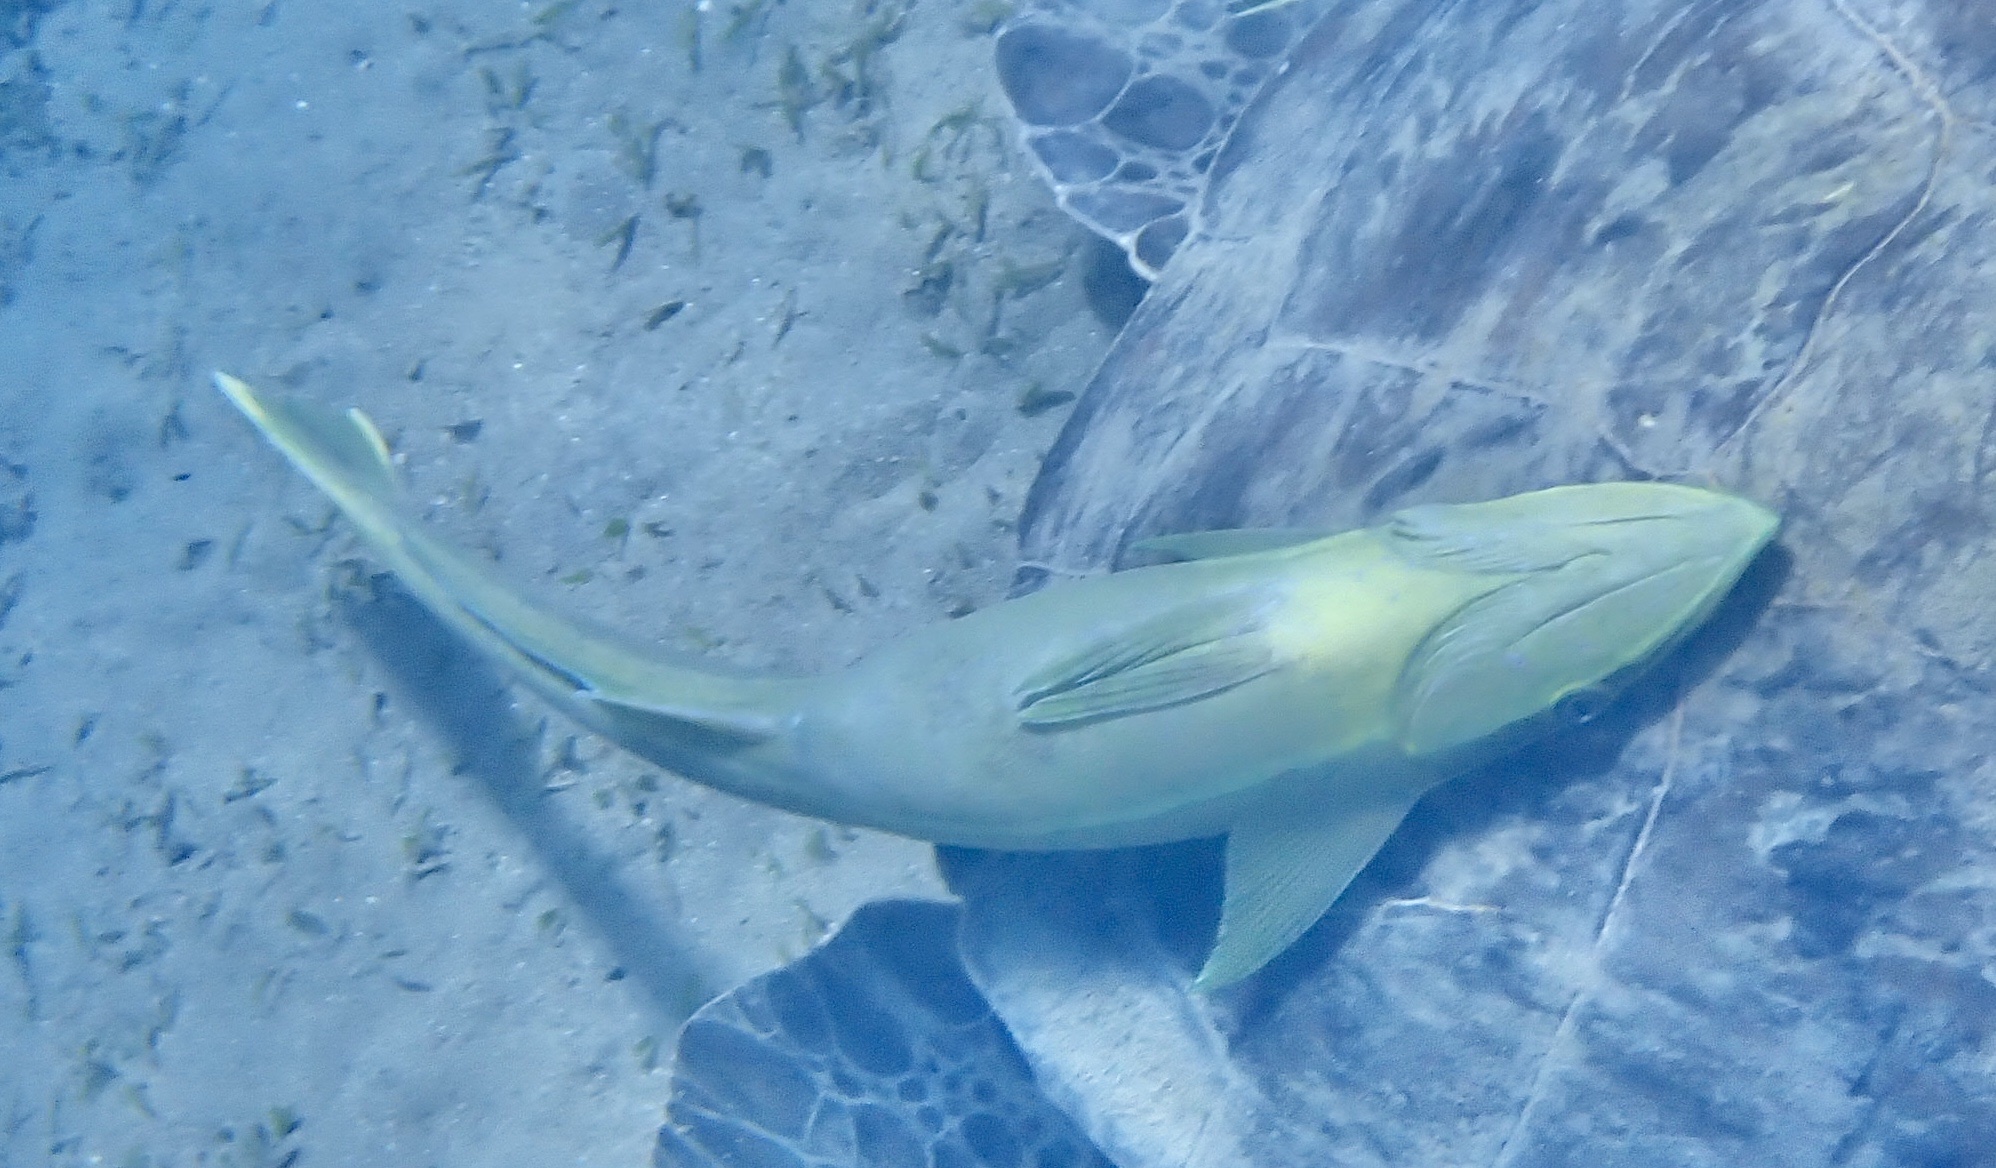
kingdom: Animalia
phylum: Chordata
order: Perciformes
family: Echeneidae
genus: Echeneis
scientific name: Echeneis naucrates
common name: Sharksucker
